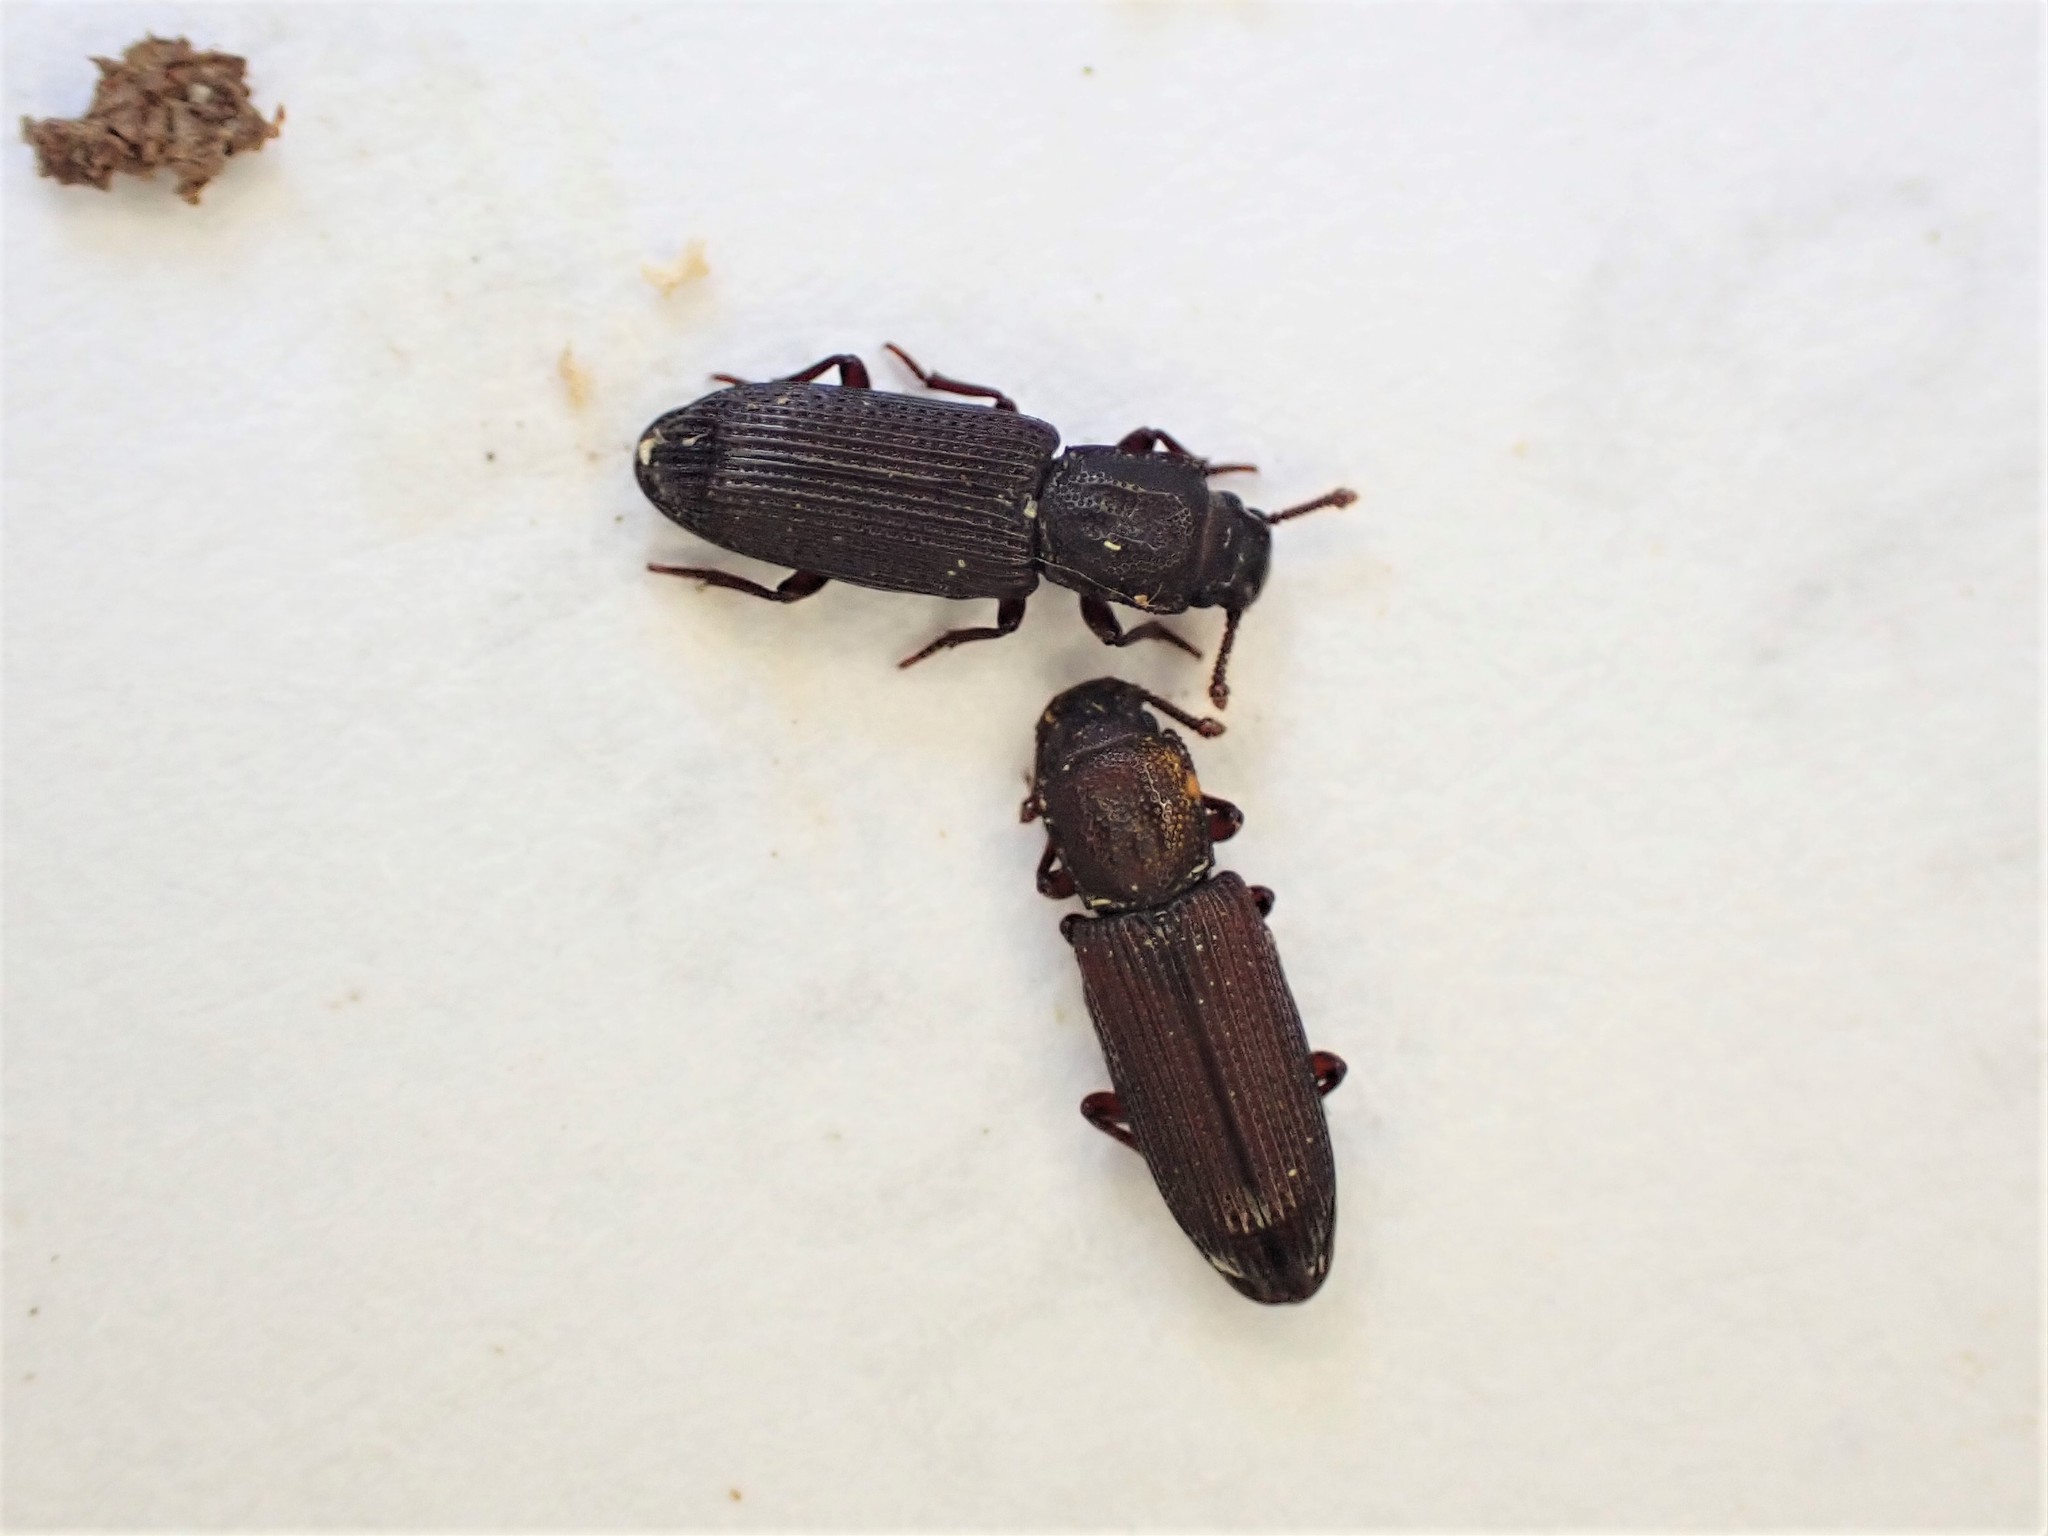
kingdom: Animalia
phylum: Arthropoda
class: Insecta
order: Coleoptera
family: Zopheridae
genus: Pycnomerus
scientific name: Pycnomerus
